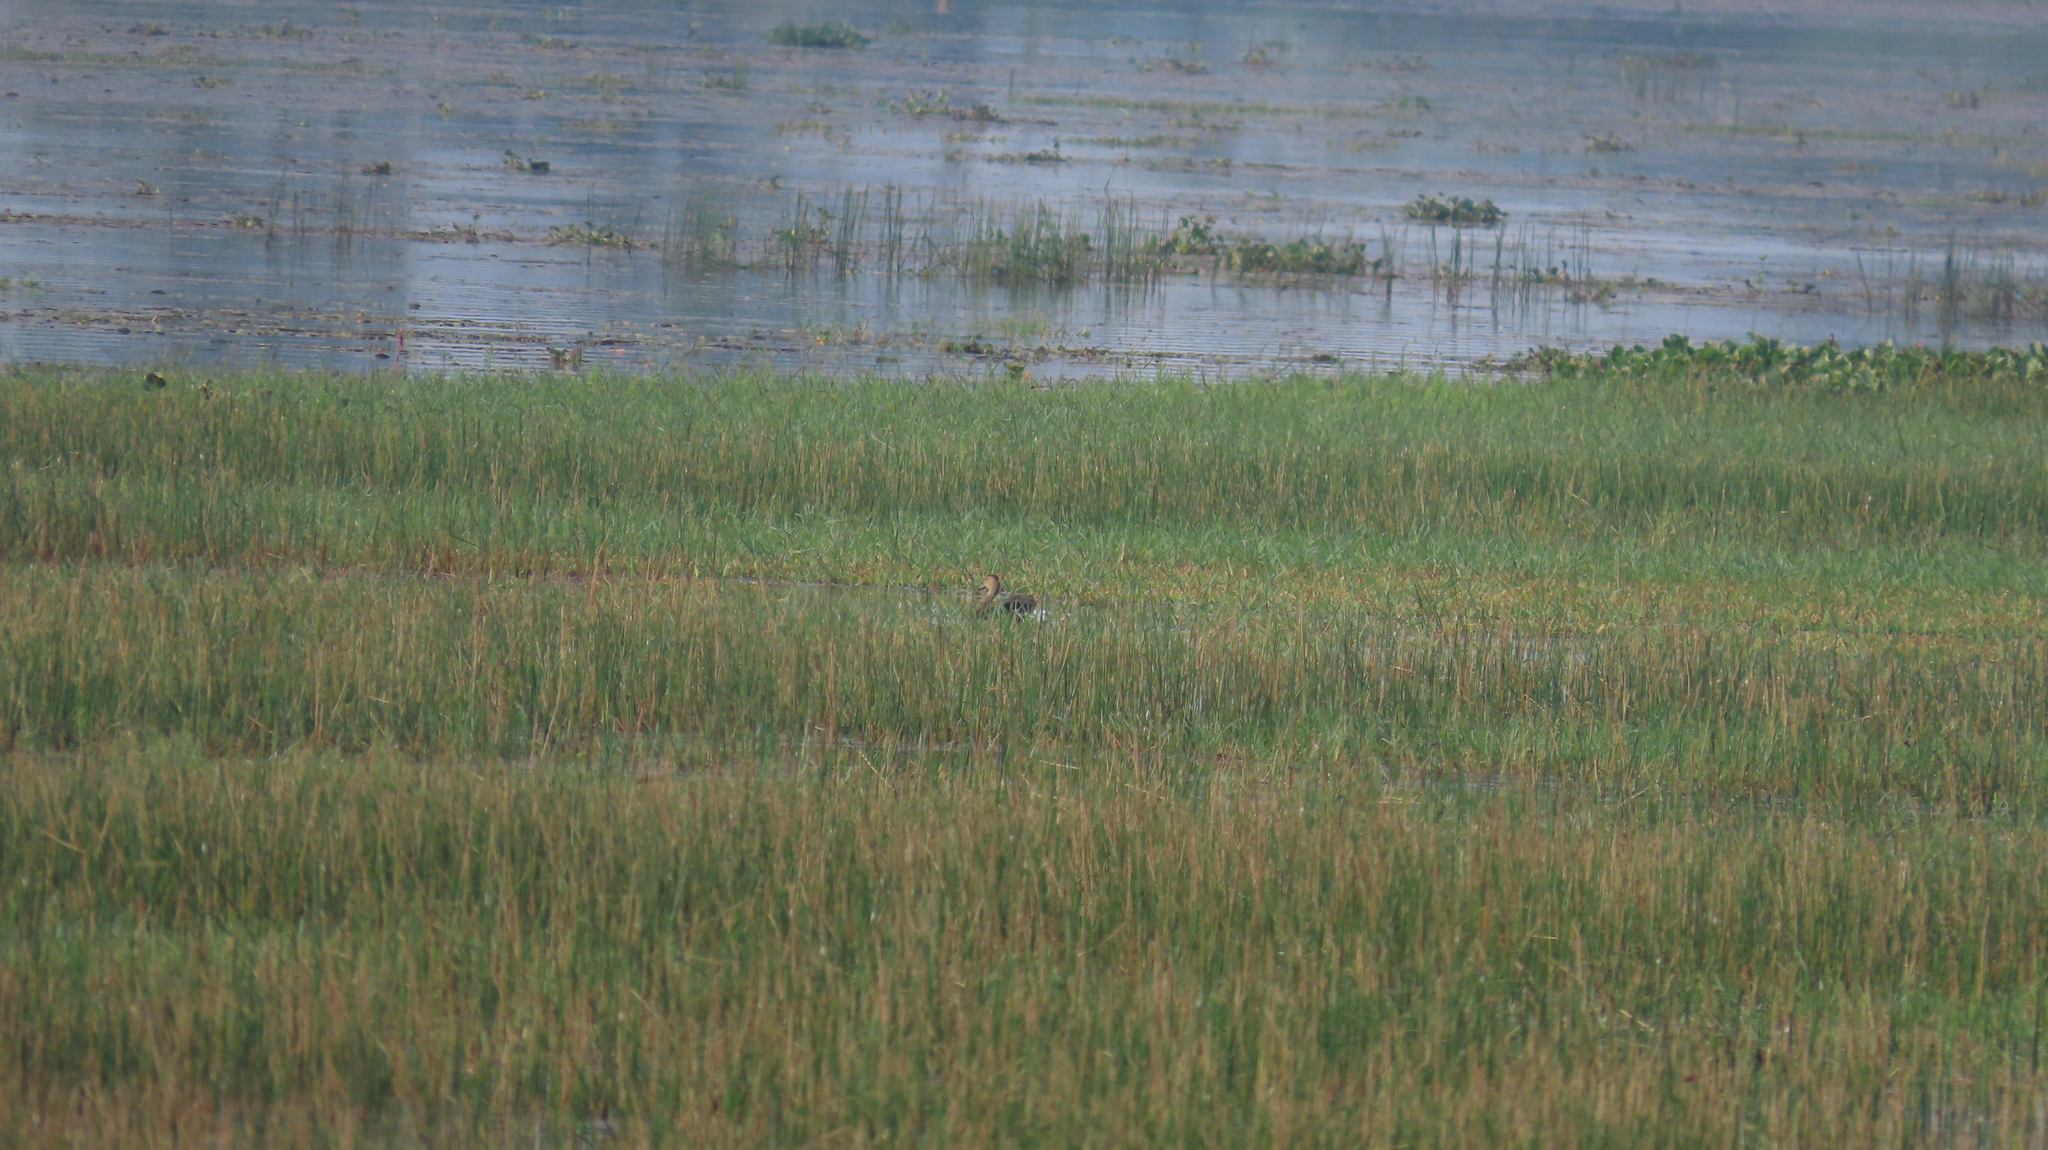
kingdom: Animalia
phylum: Chordata
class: Aves
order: Anseriformes
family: Anatidae
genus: Dendrocygna
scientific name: Dendrocygna javanica
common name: Lesser whistling-duck
